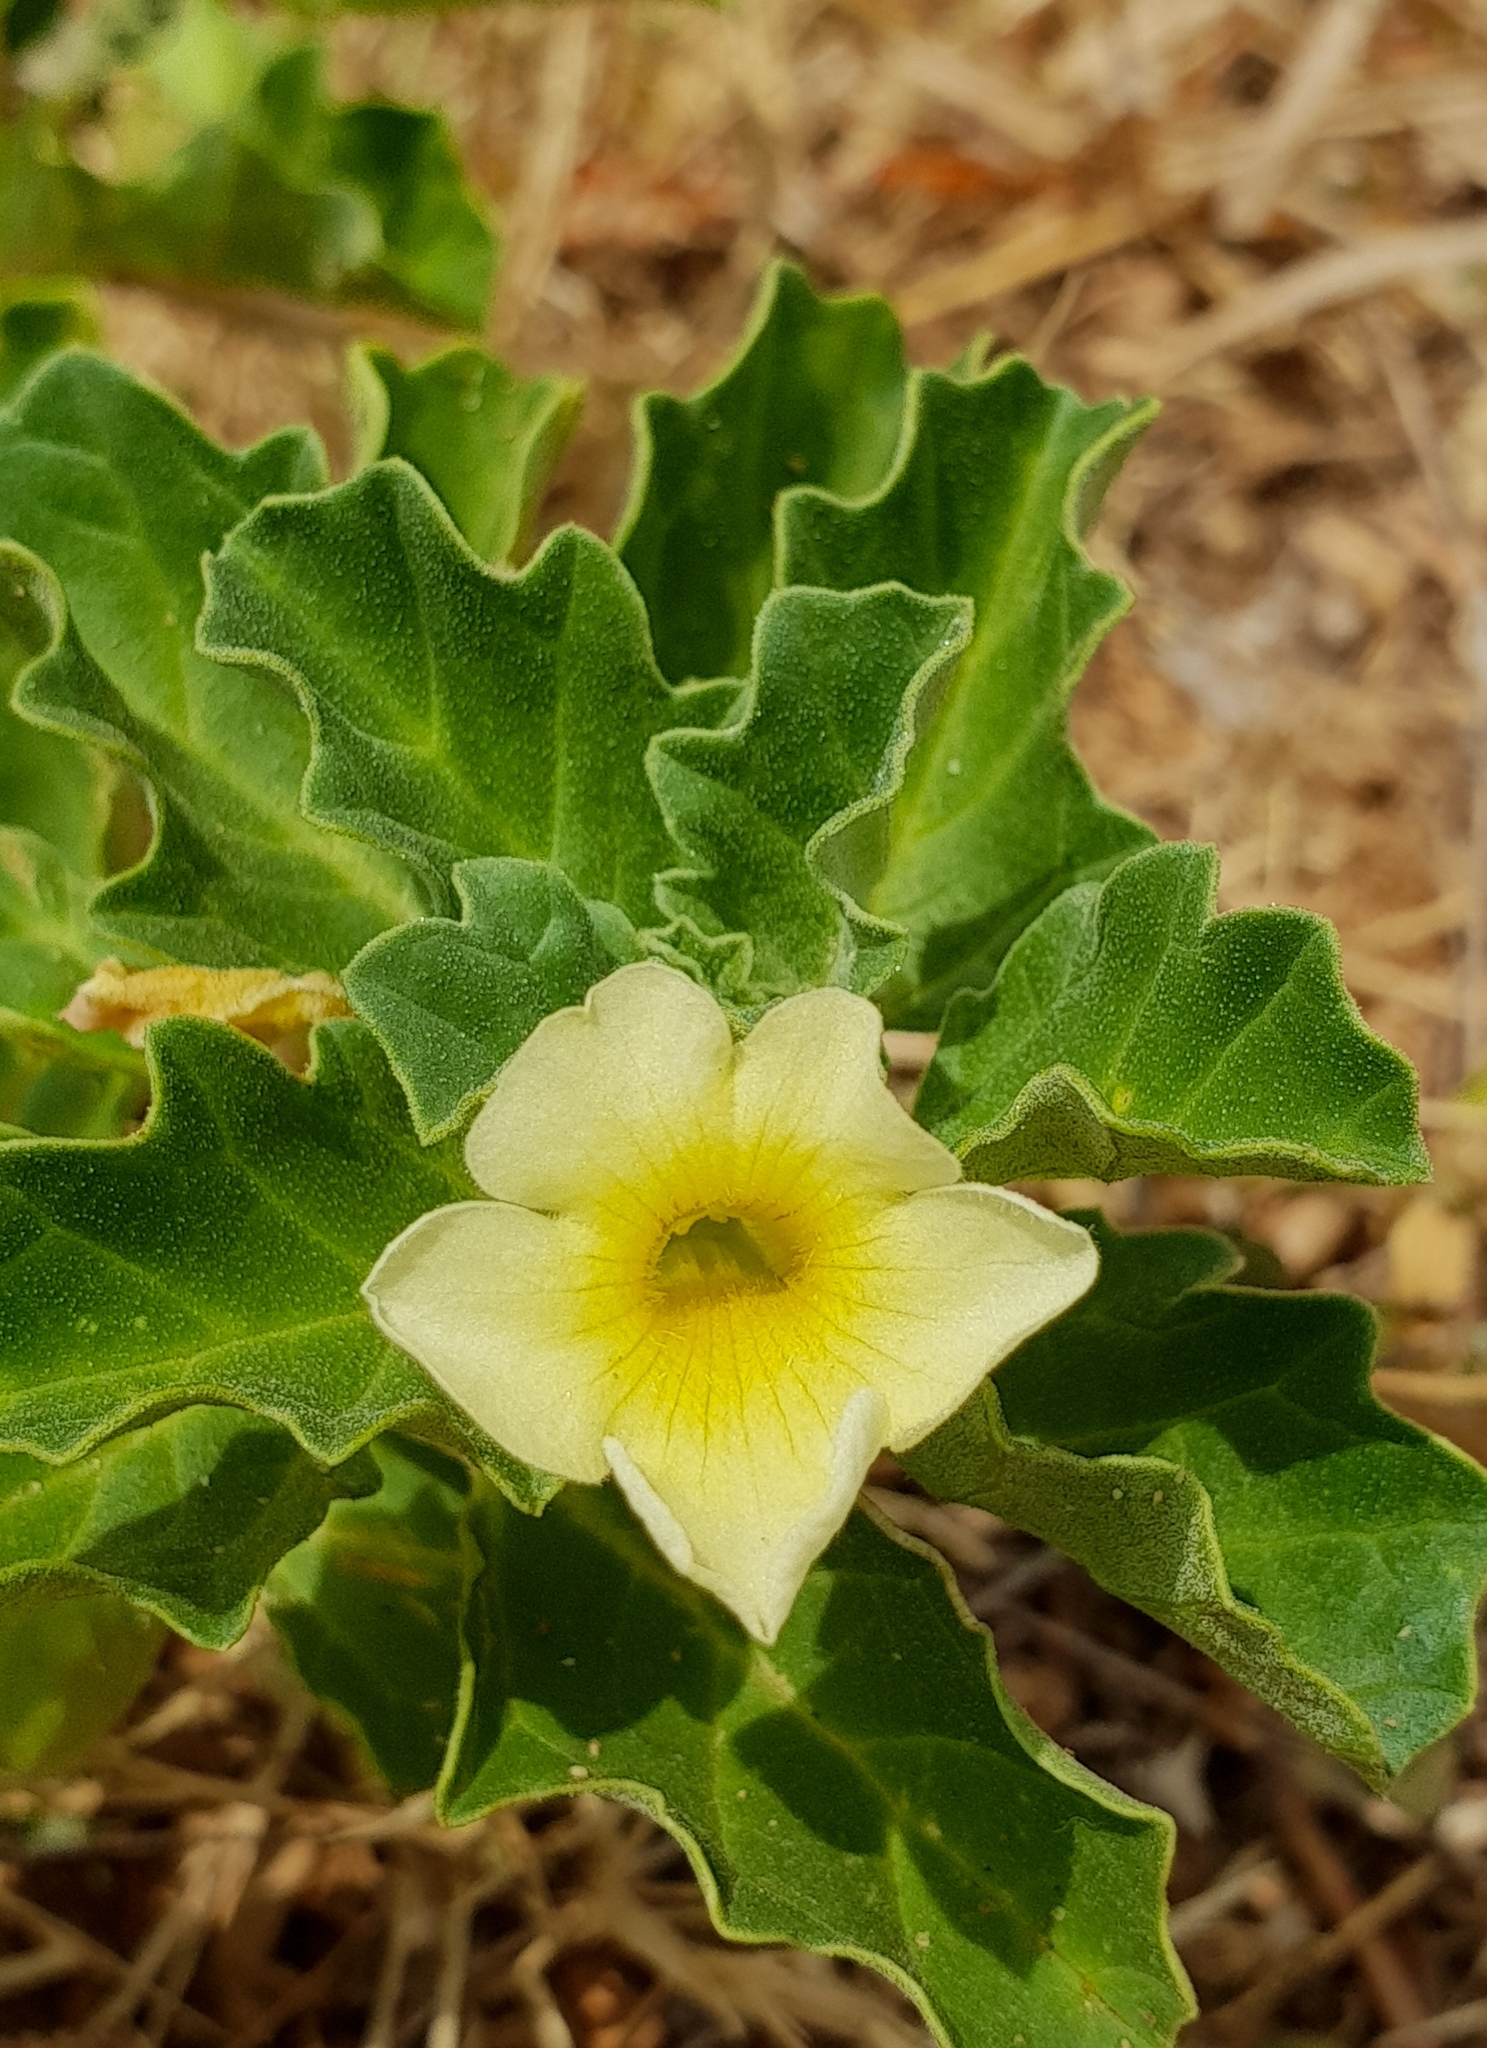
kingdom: Plantae
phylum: Tracheophyta
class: Magnoliopsida
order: Lamiales
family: Pedaliaceae
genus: Pedalium
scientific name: Pedalium murex
